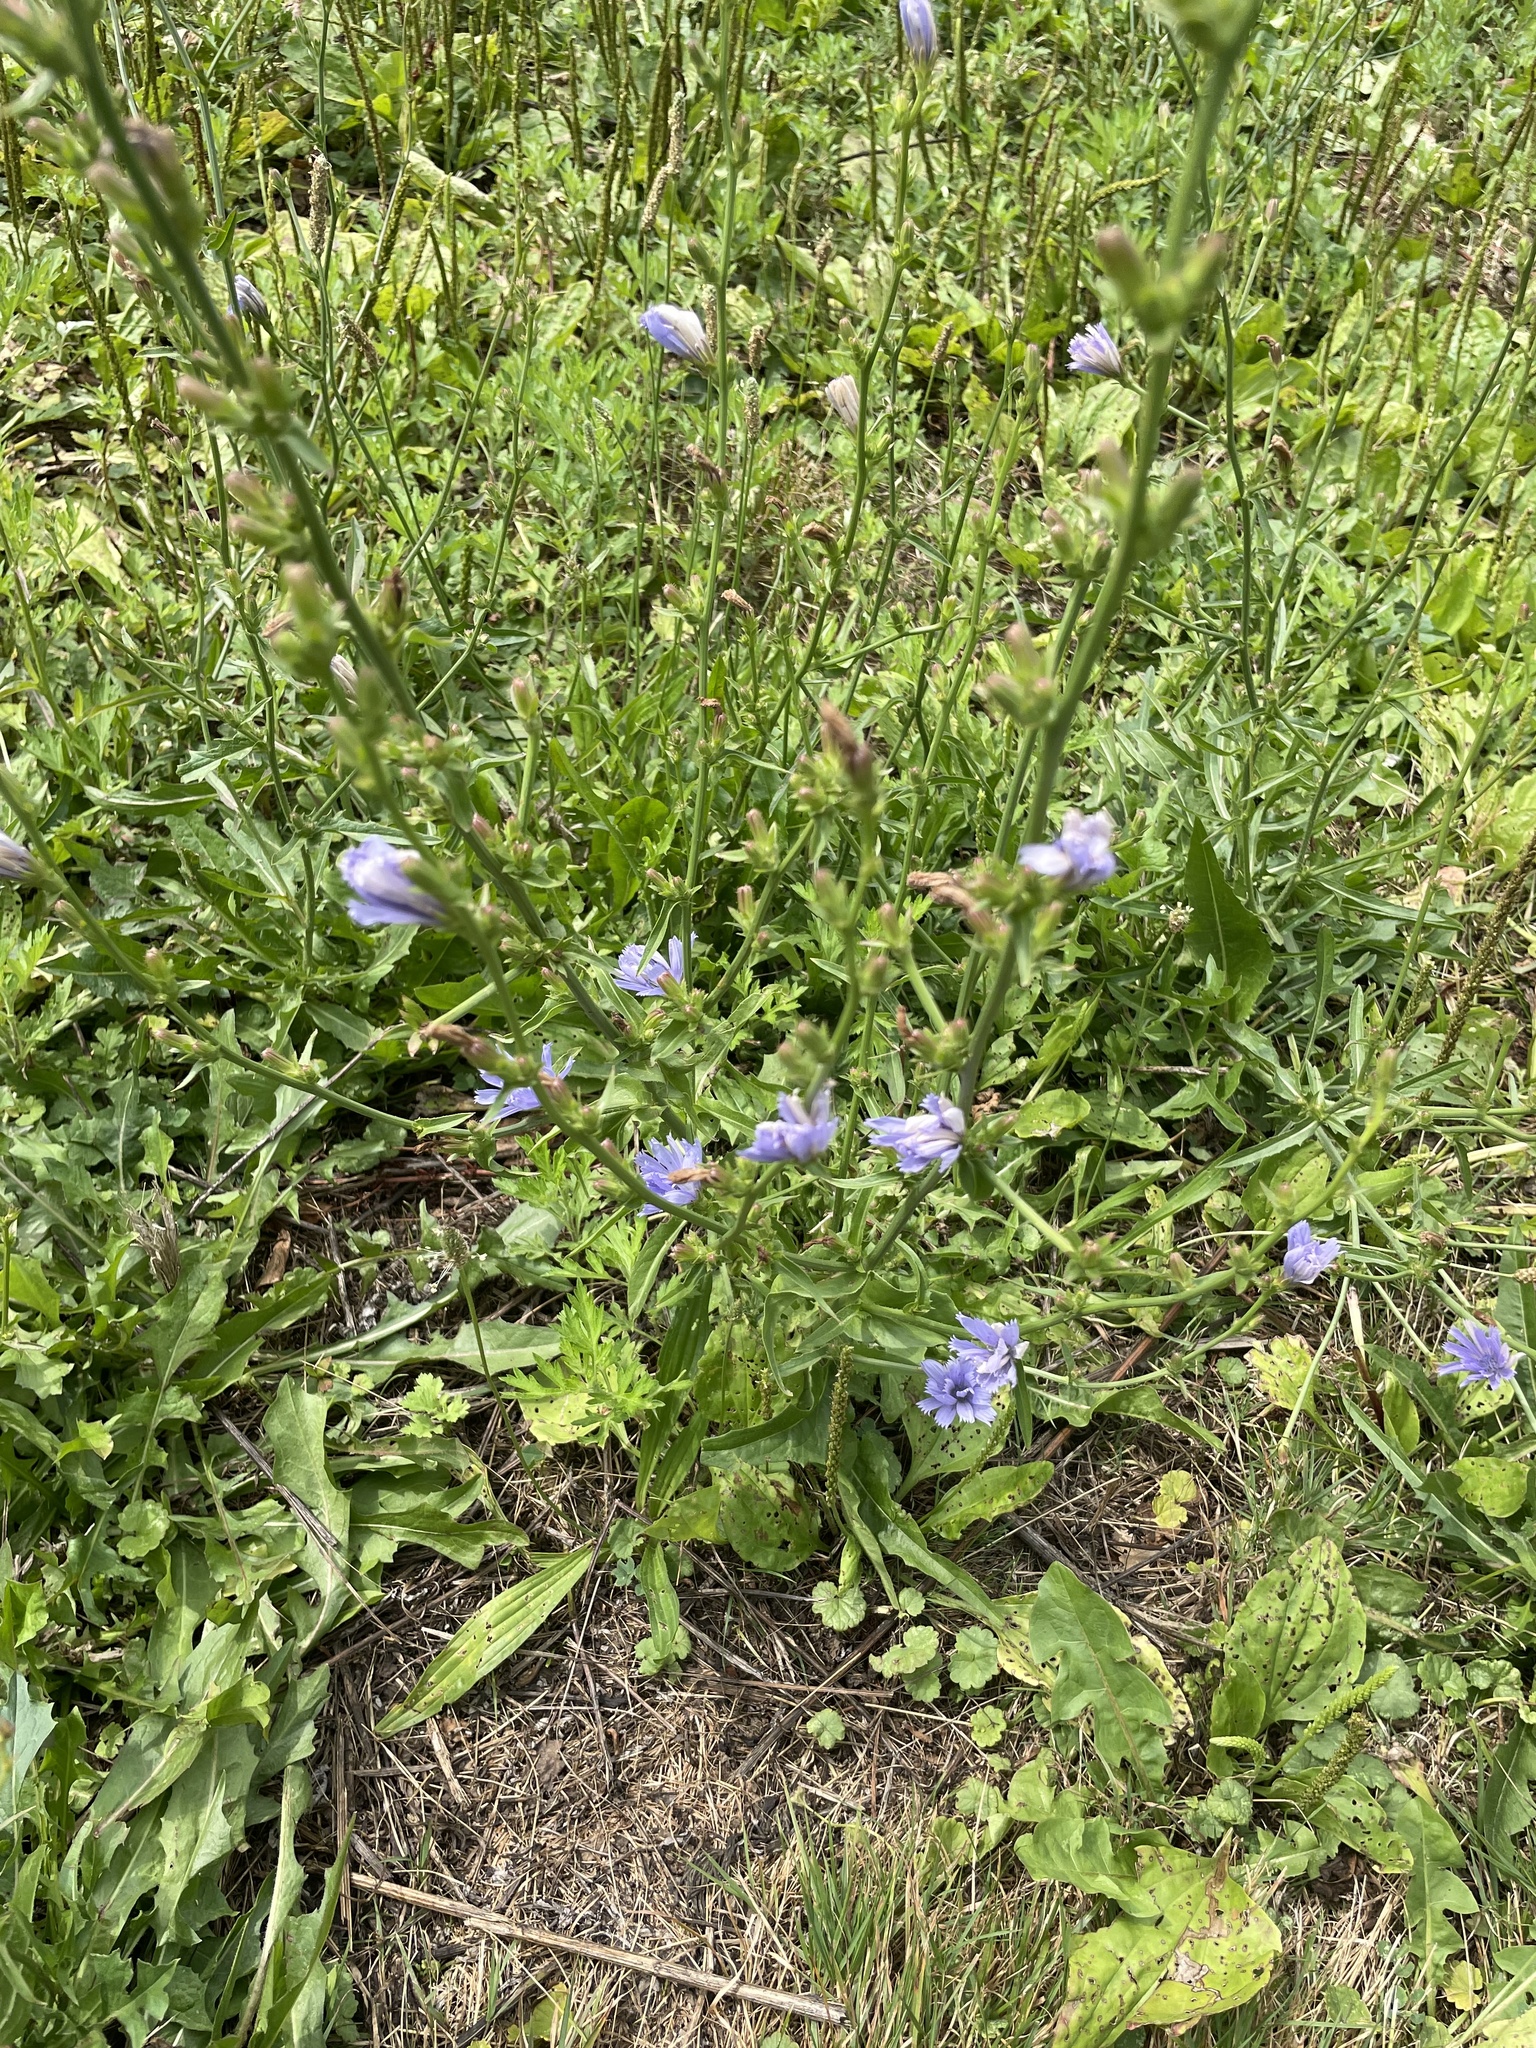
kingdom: Plantae
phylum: Tracheophyta
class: Magnoliopsida
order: Asterales
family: Asteraceae
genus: Cichorium
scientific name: Cichorium intybus
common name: Chicory
